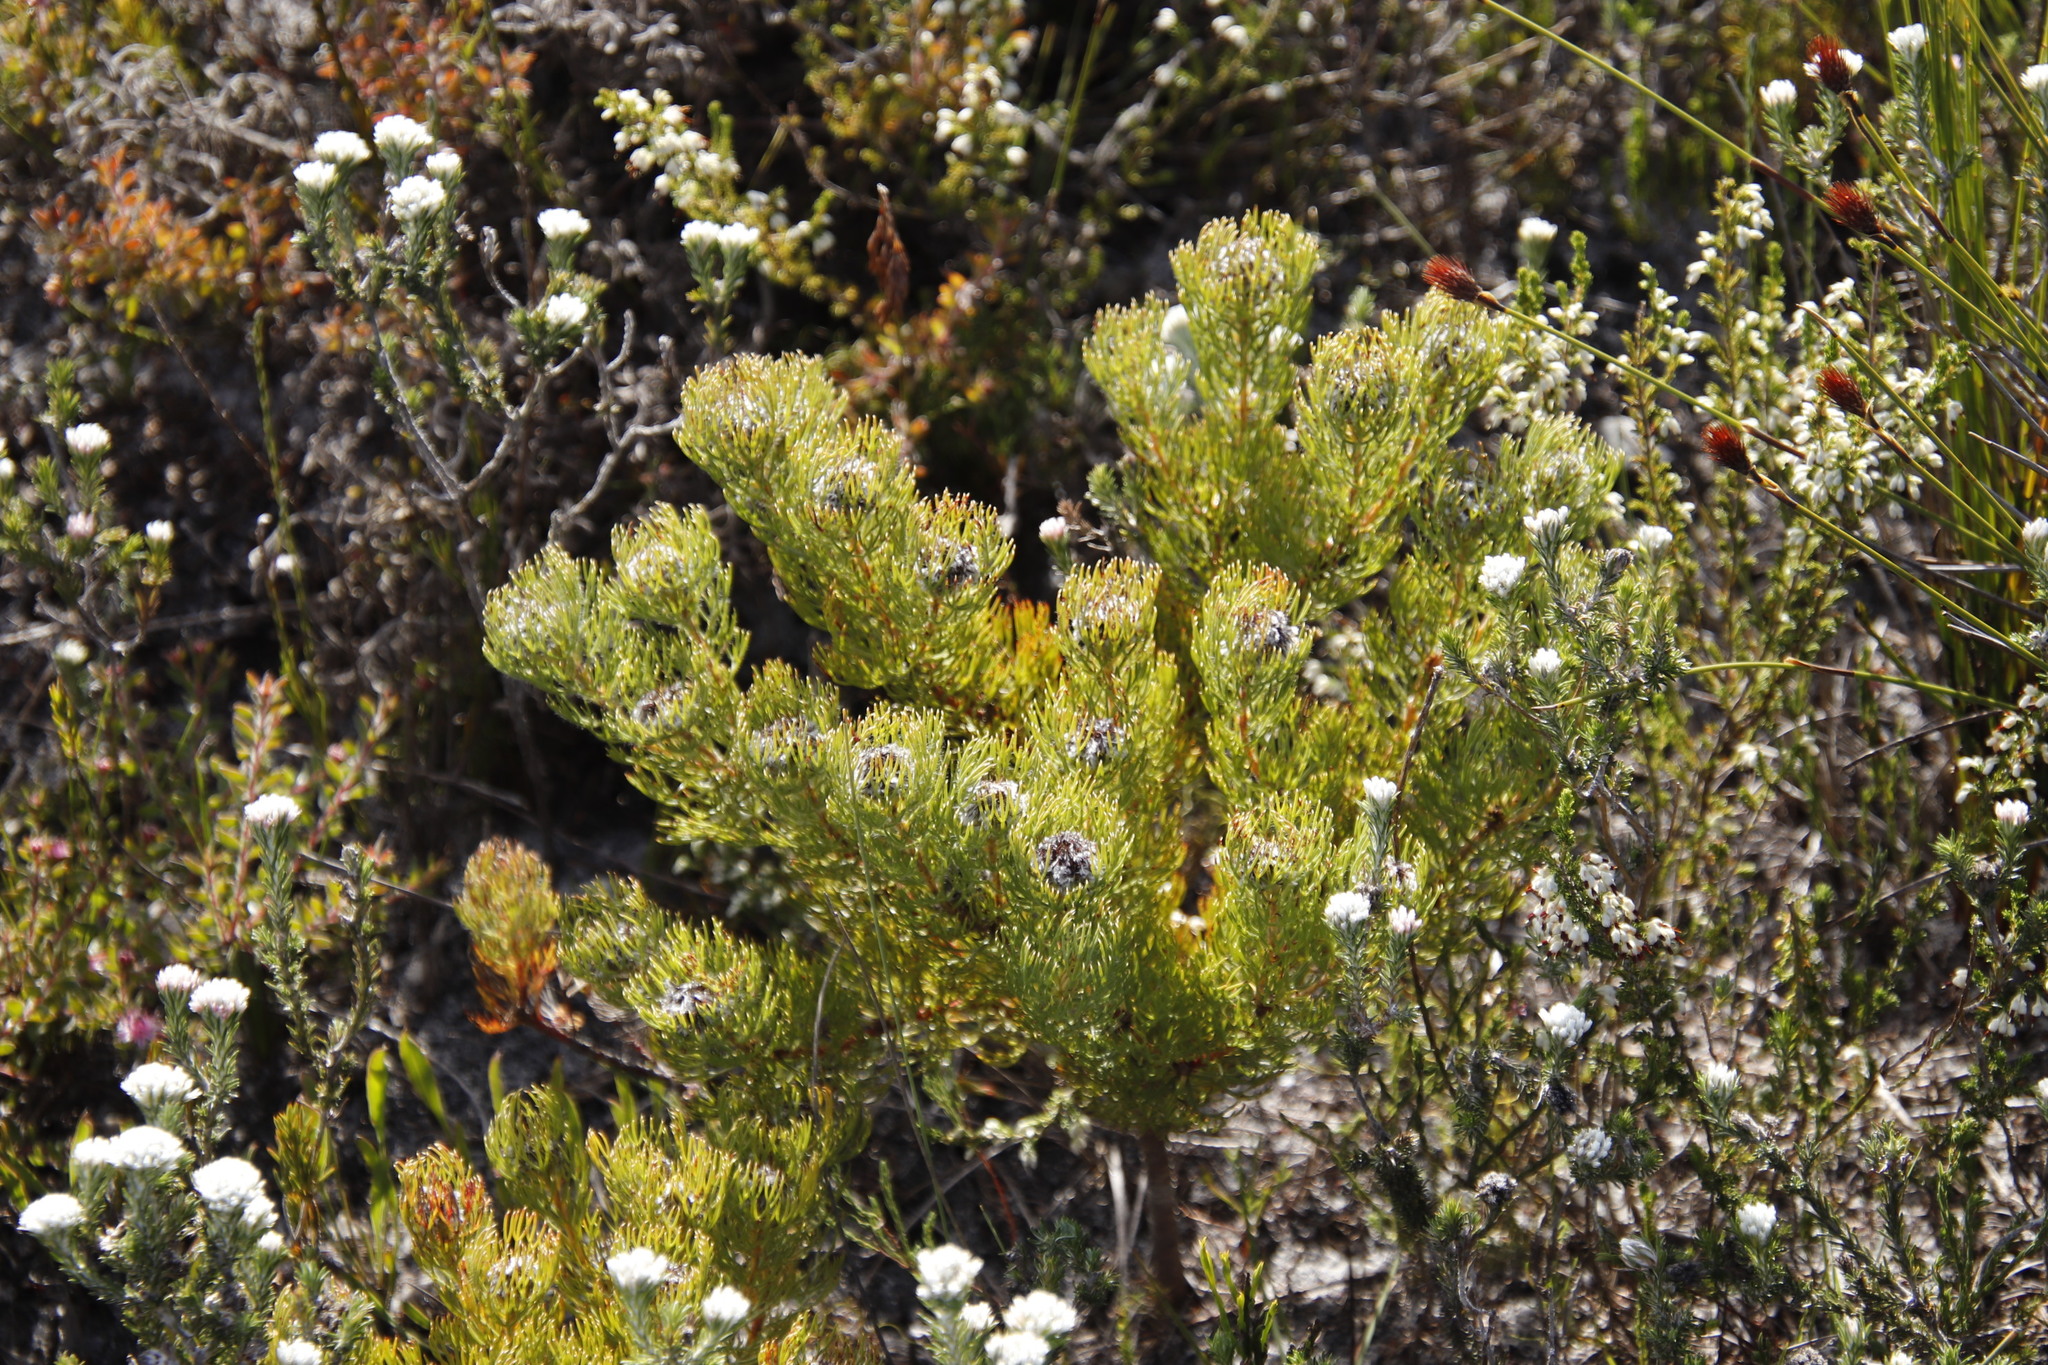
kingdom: Plantae
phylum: Tracheophyta
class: Magnoliopsida
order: Proteales
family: Proteaceae
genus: Serruria
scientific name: Serruria villosa
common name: Golden spiderhead
